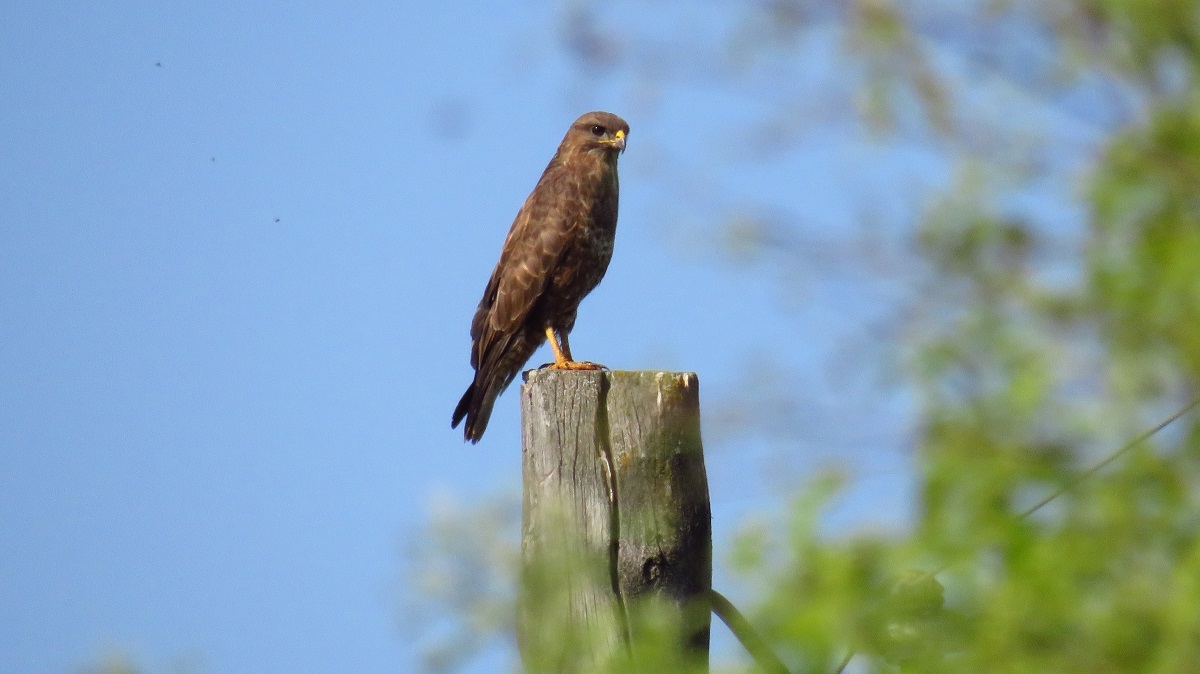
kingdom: Animalia
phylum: Chordata
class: Aves
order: Accipitriformes
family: Accipitridae
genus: Buteo
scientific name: Buteo buteo
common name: Common buzzard
